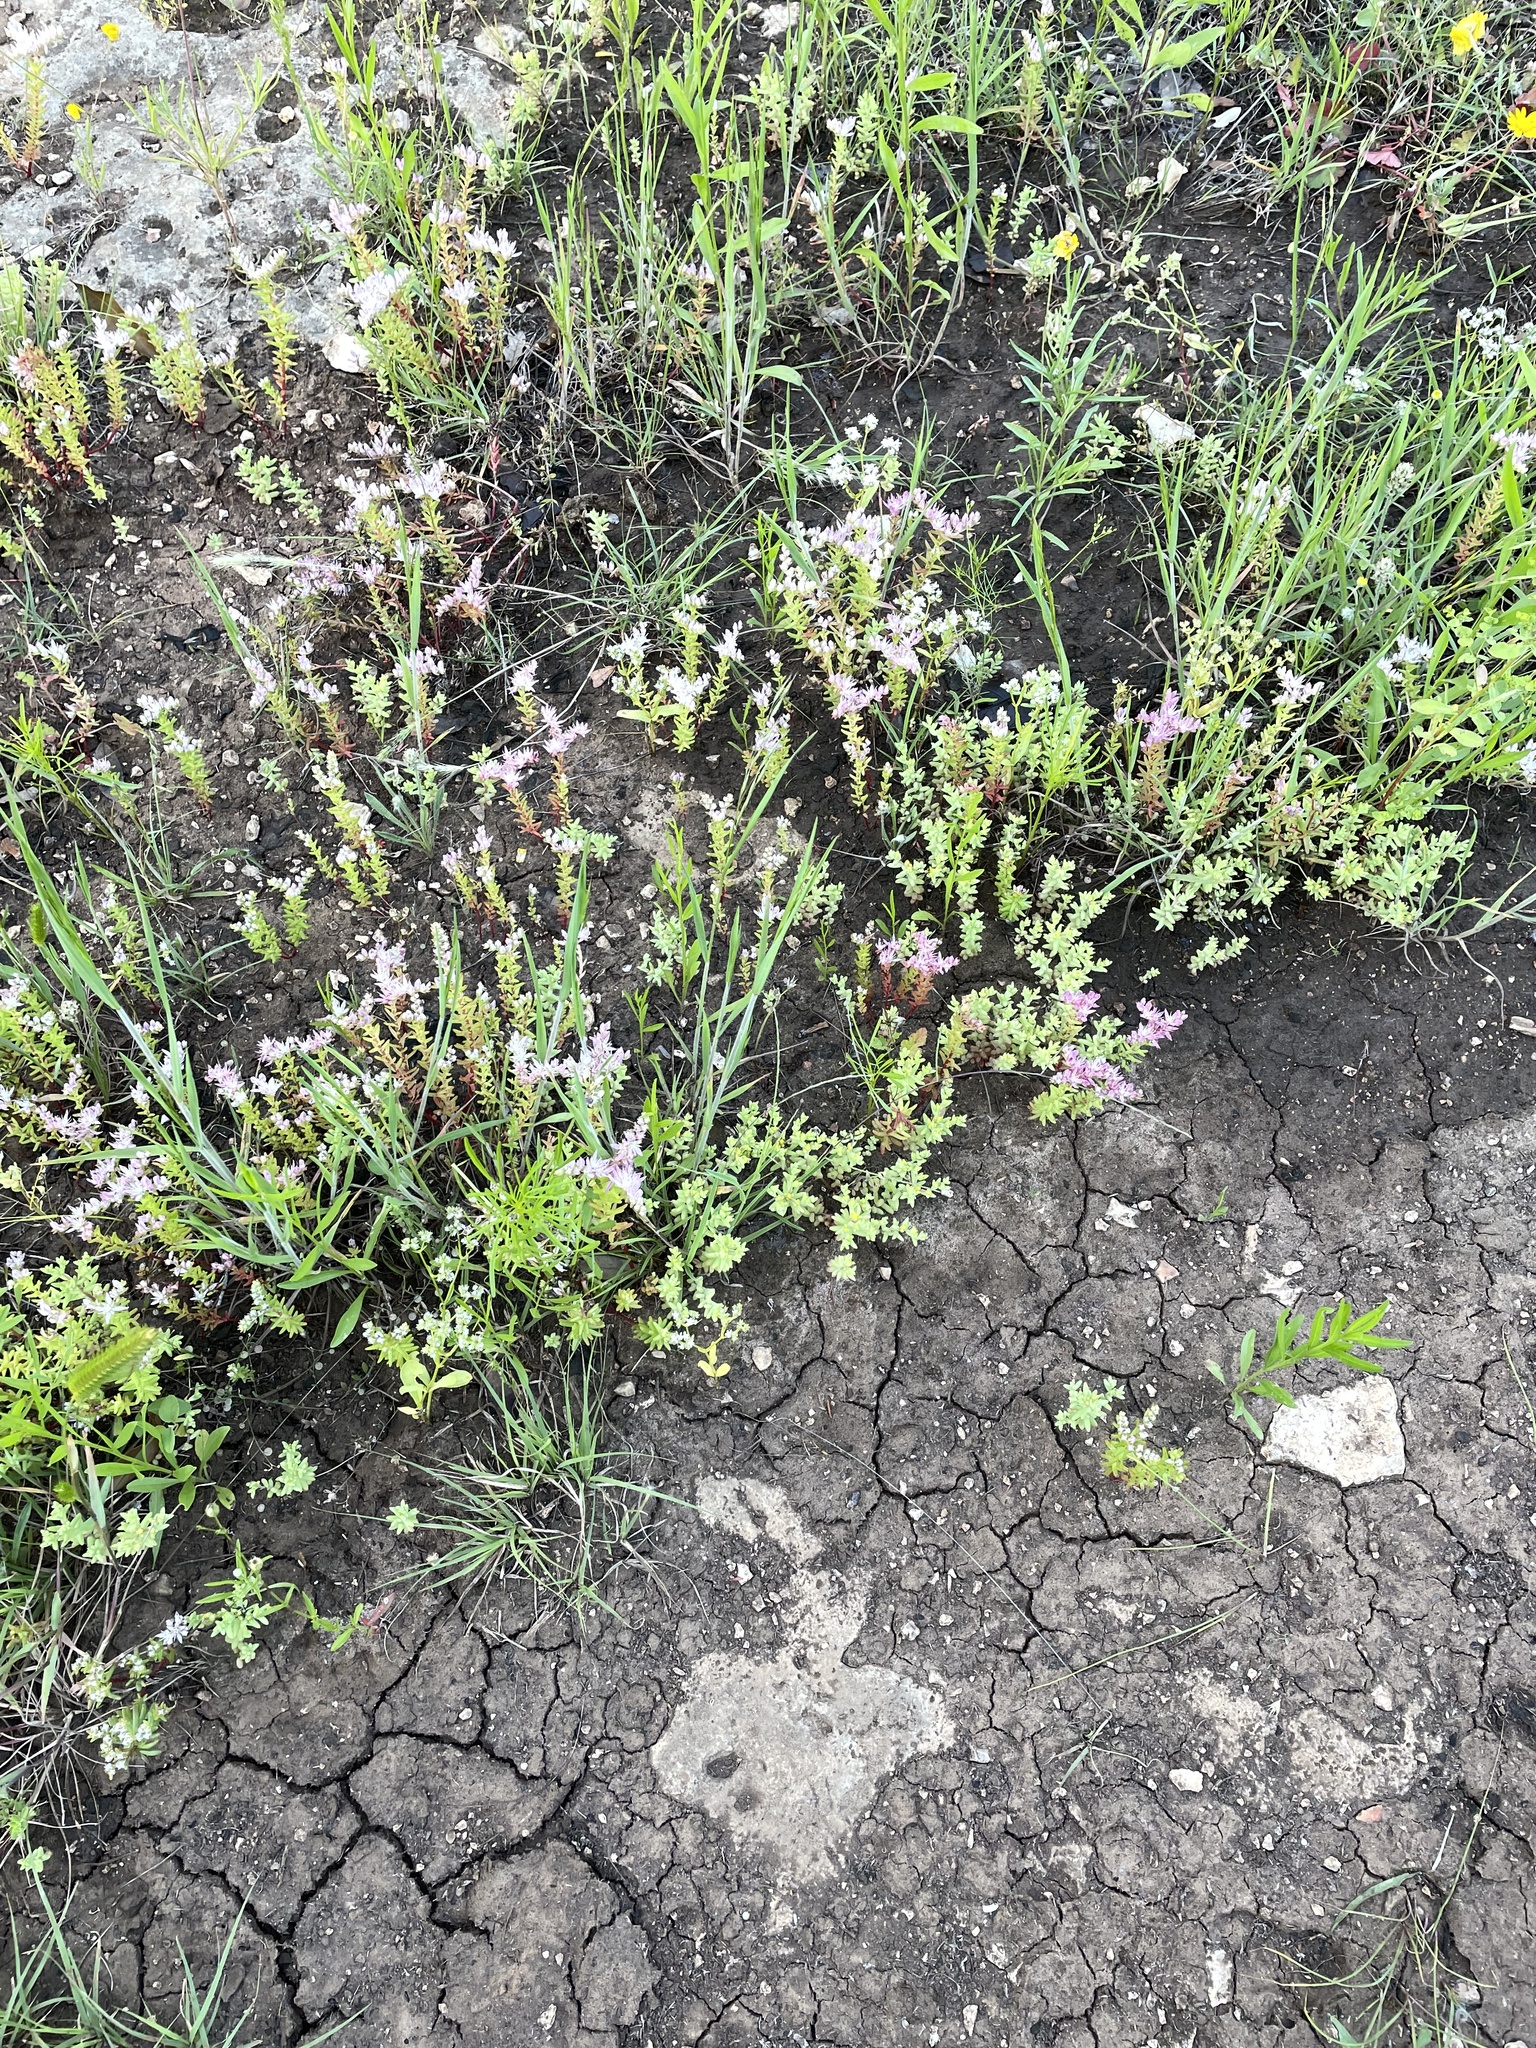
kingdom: Plantae
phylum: Tracheophyta
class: Magnoliopsida
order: Saxifragales
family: Crassulaceae
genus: Sedum
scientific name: Sedum pulchellum
